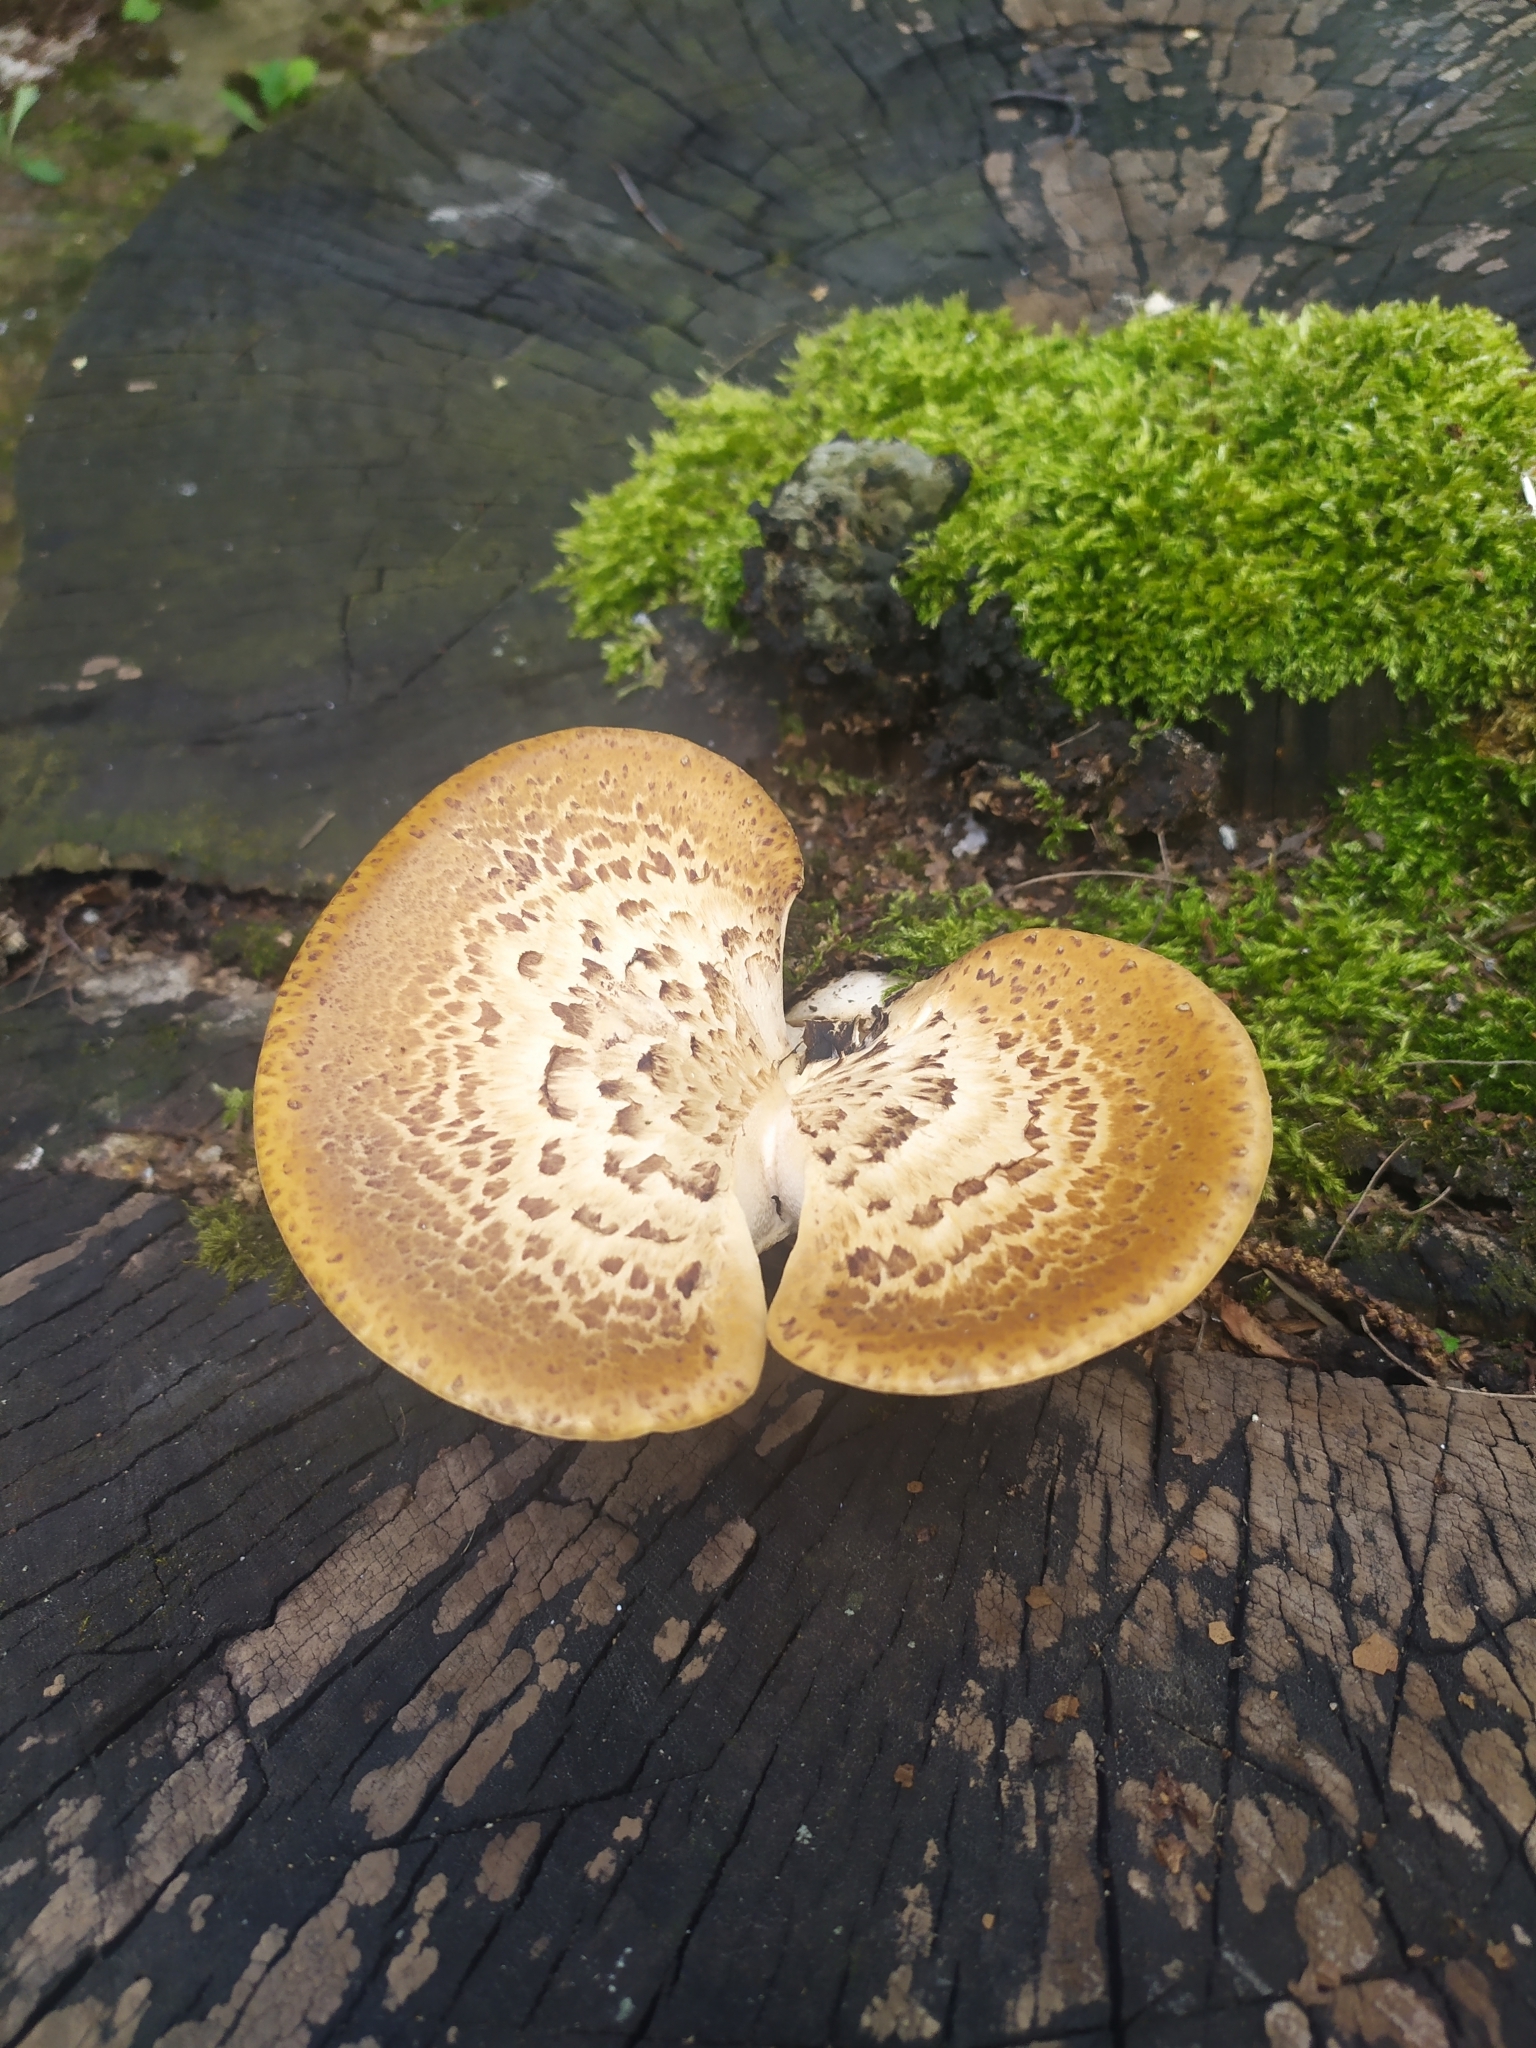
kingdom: Fungi
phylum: Basidiomycota
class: Agaricomycetes
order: Polyporales
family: Polyporaceae
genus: Cerioporus
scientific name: Cerioporus squamosus
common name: Dryad's saddle
